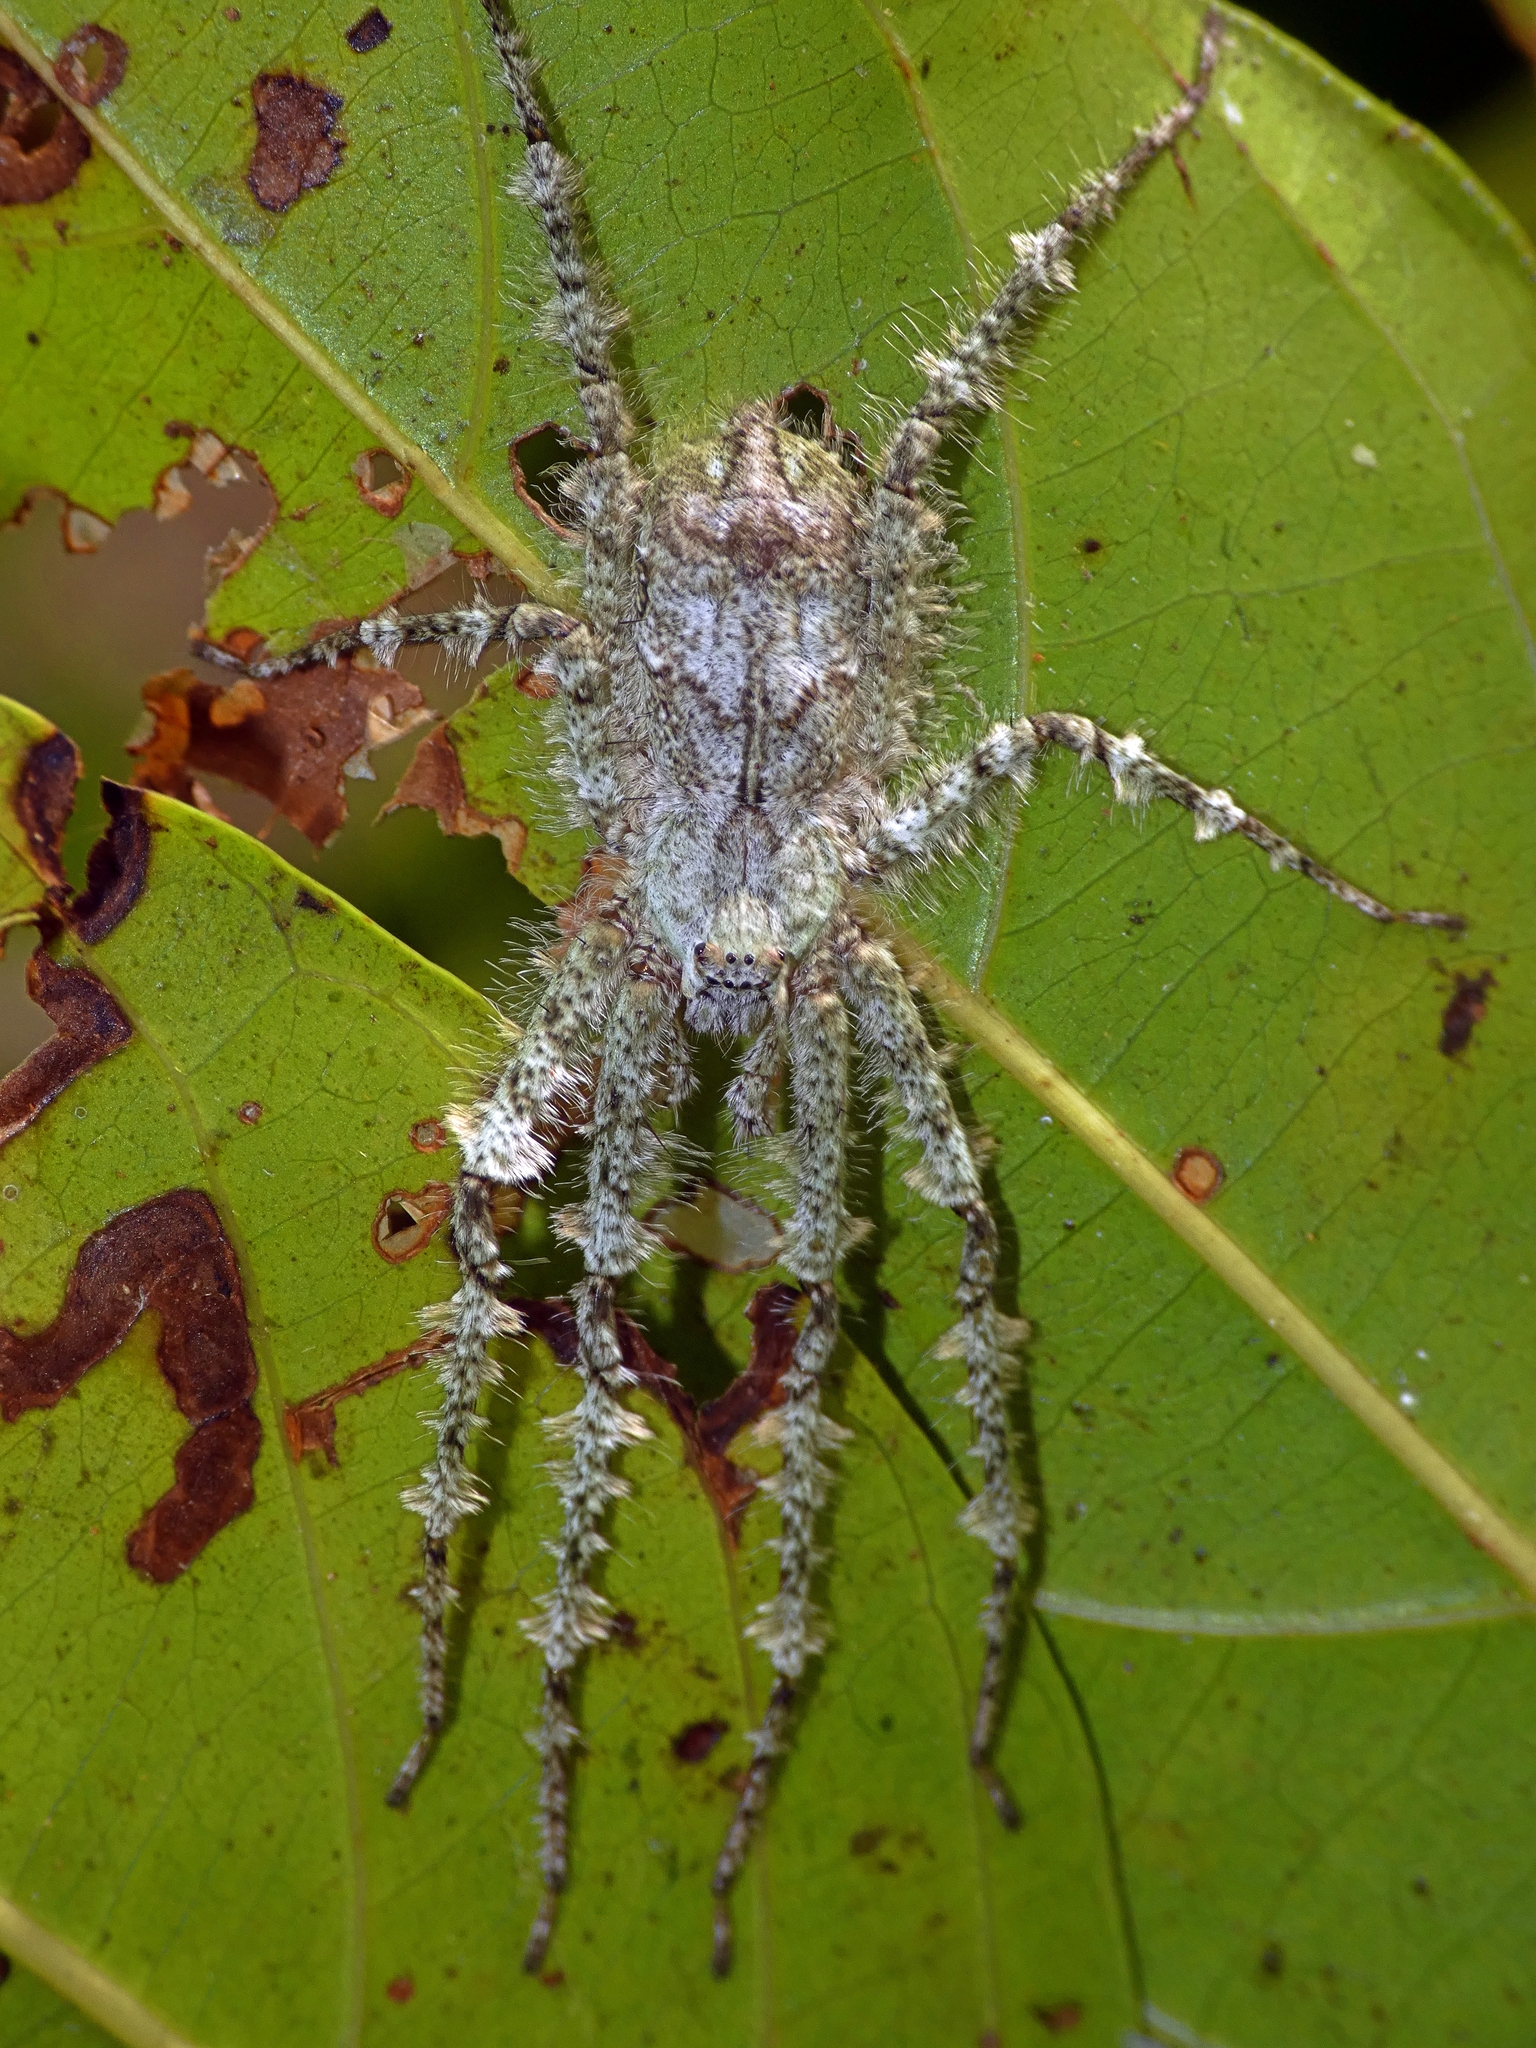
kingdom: Animalia
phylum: Arthropoda
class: Arachnida
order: Araneae
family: Sparassidae
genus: Pandercetes
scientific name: Pandercetes gracilis
